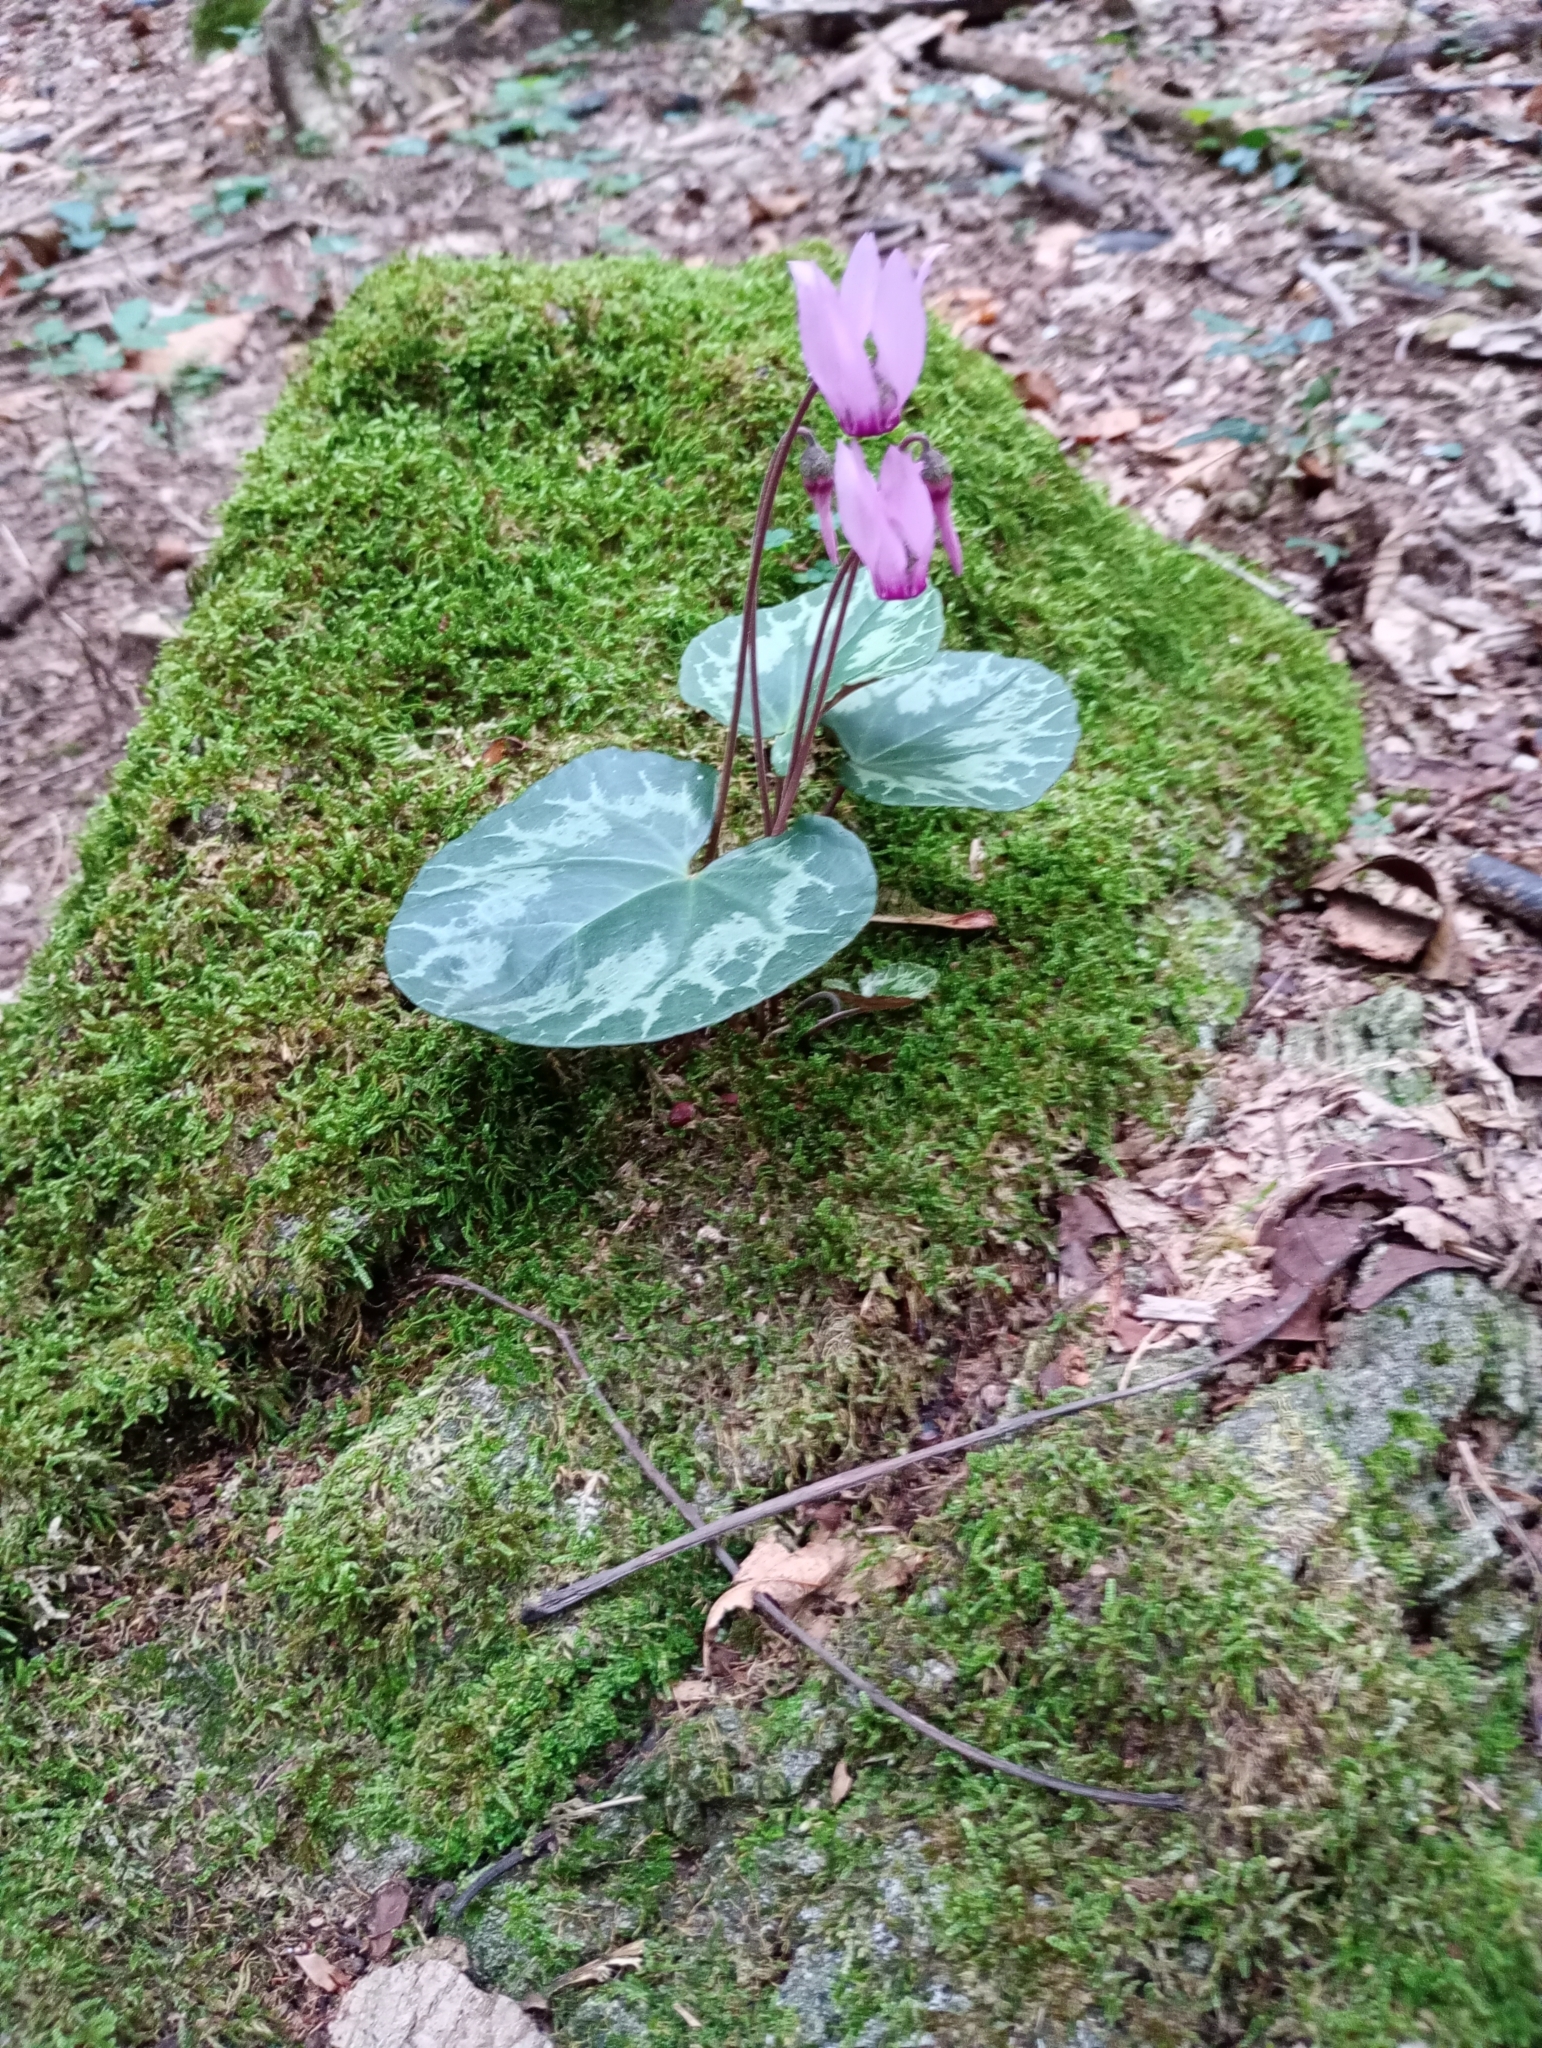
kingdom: Plantae
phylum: Tracheophyta
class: Magnoliopsida
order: Ericales
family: Primulaceae
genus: Cyclamen
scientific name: Cyclamen purpurascens
